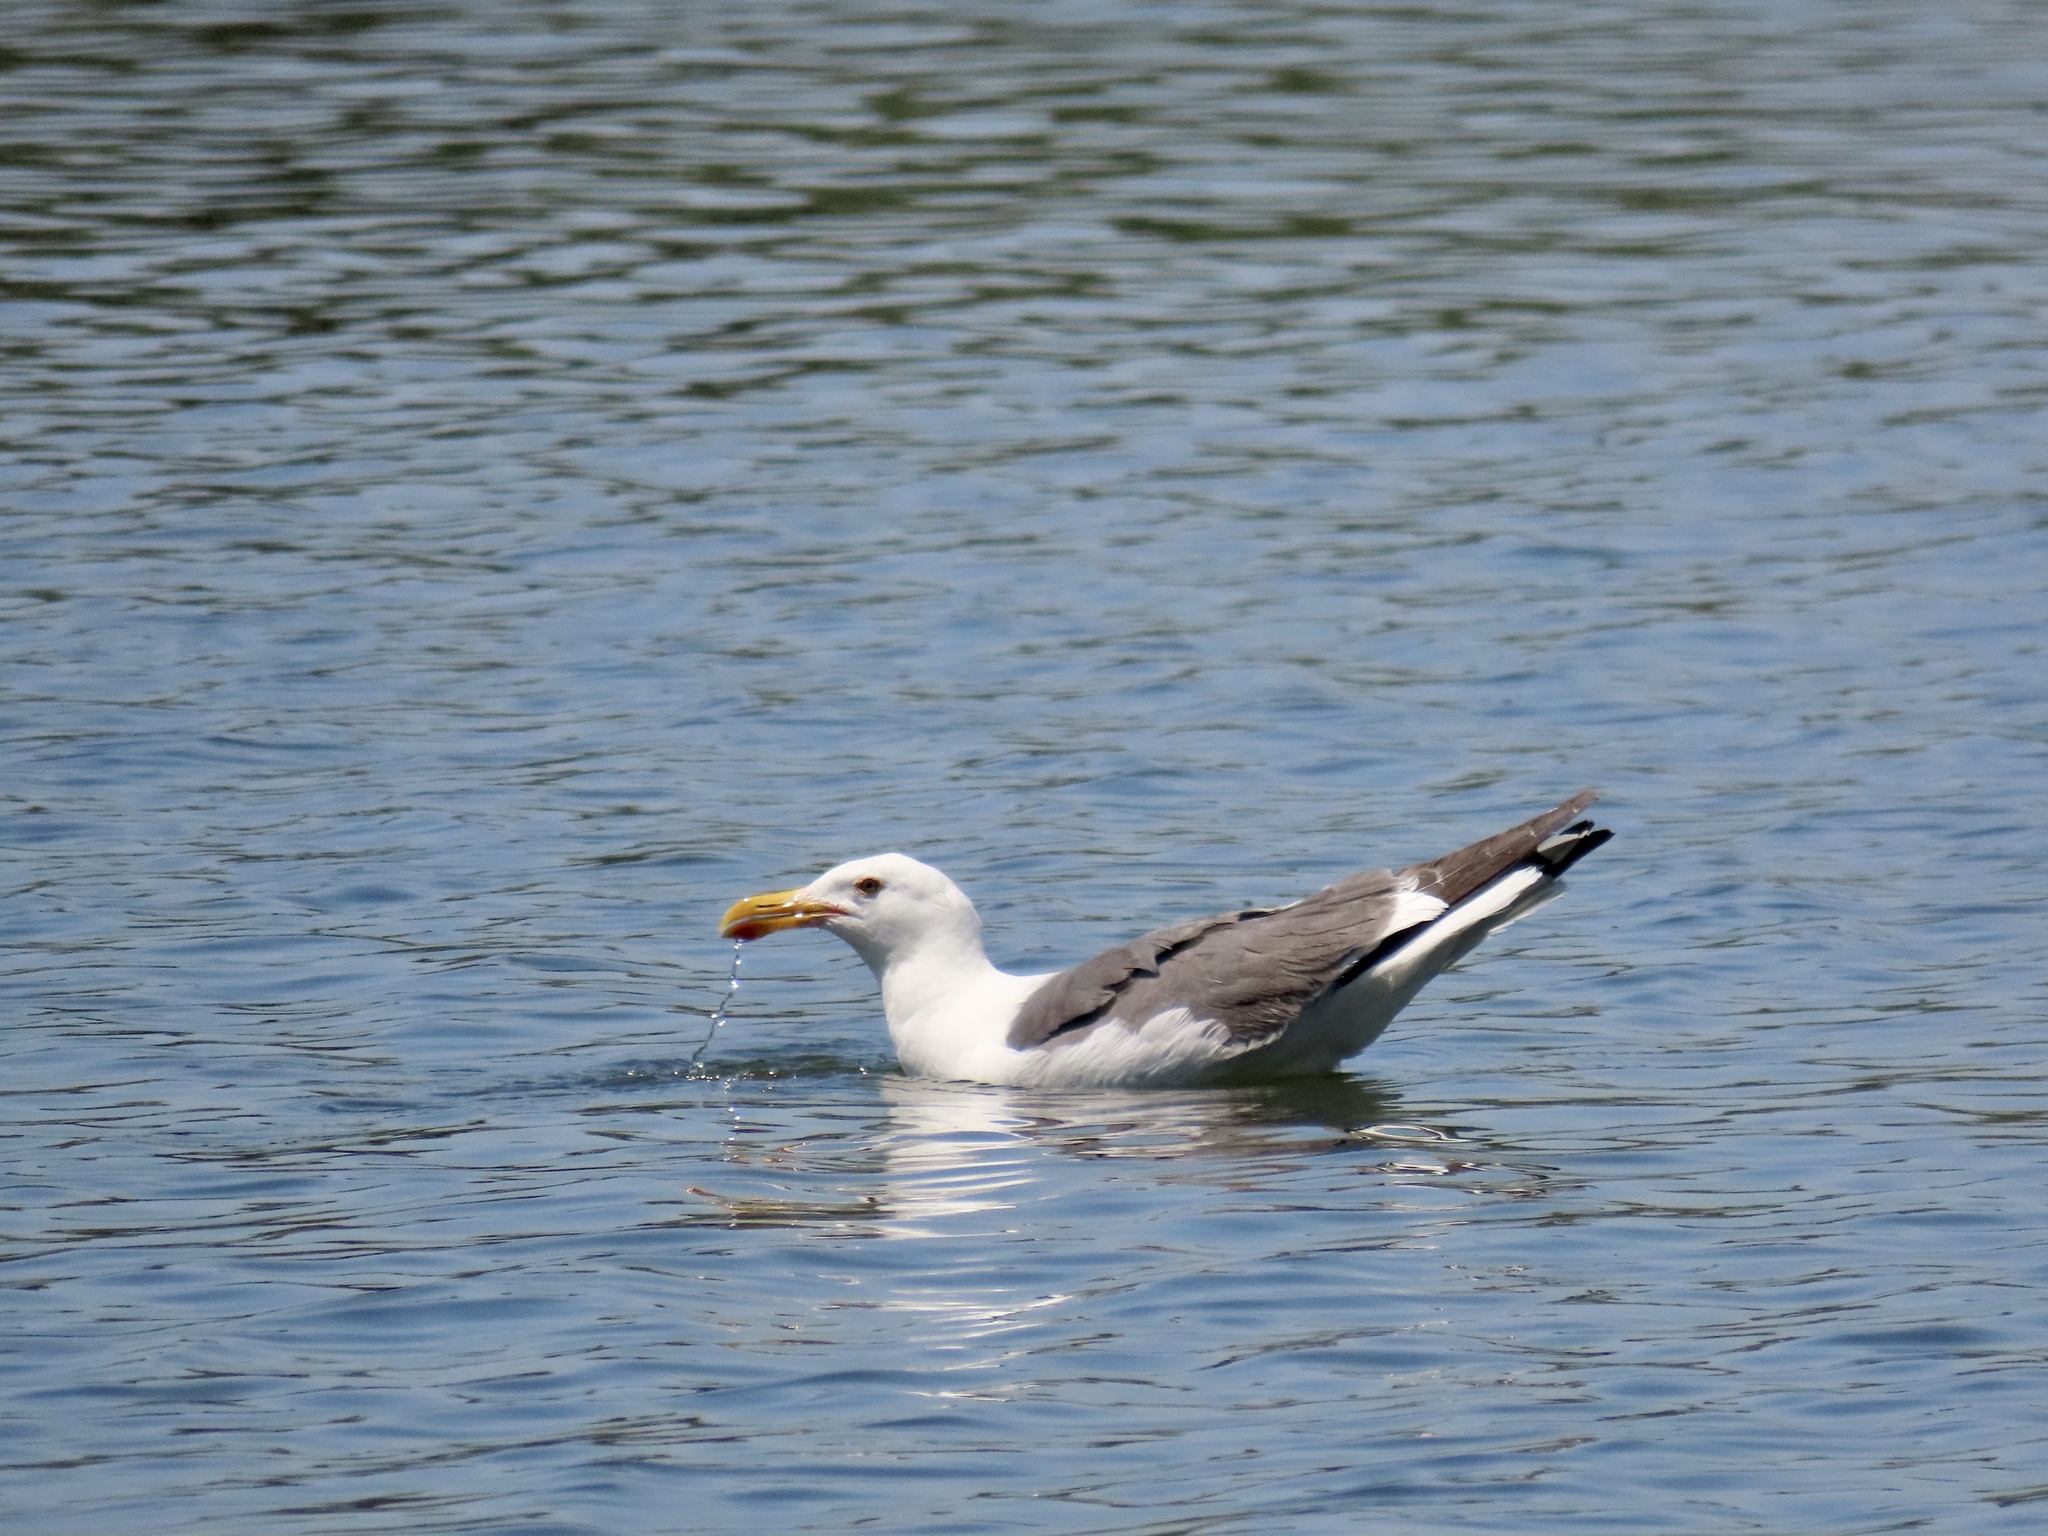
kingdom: Animalia
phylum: Chordata
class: Aves
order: Charadriiformes
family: Laridae
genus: Larus
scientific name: Larus occidentalis
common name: Western gull
